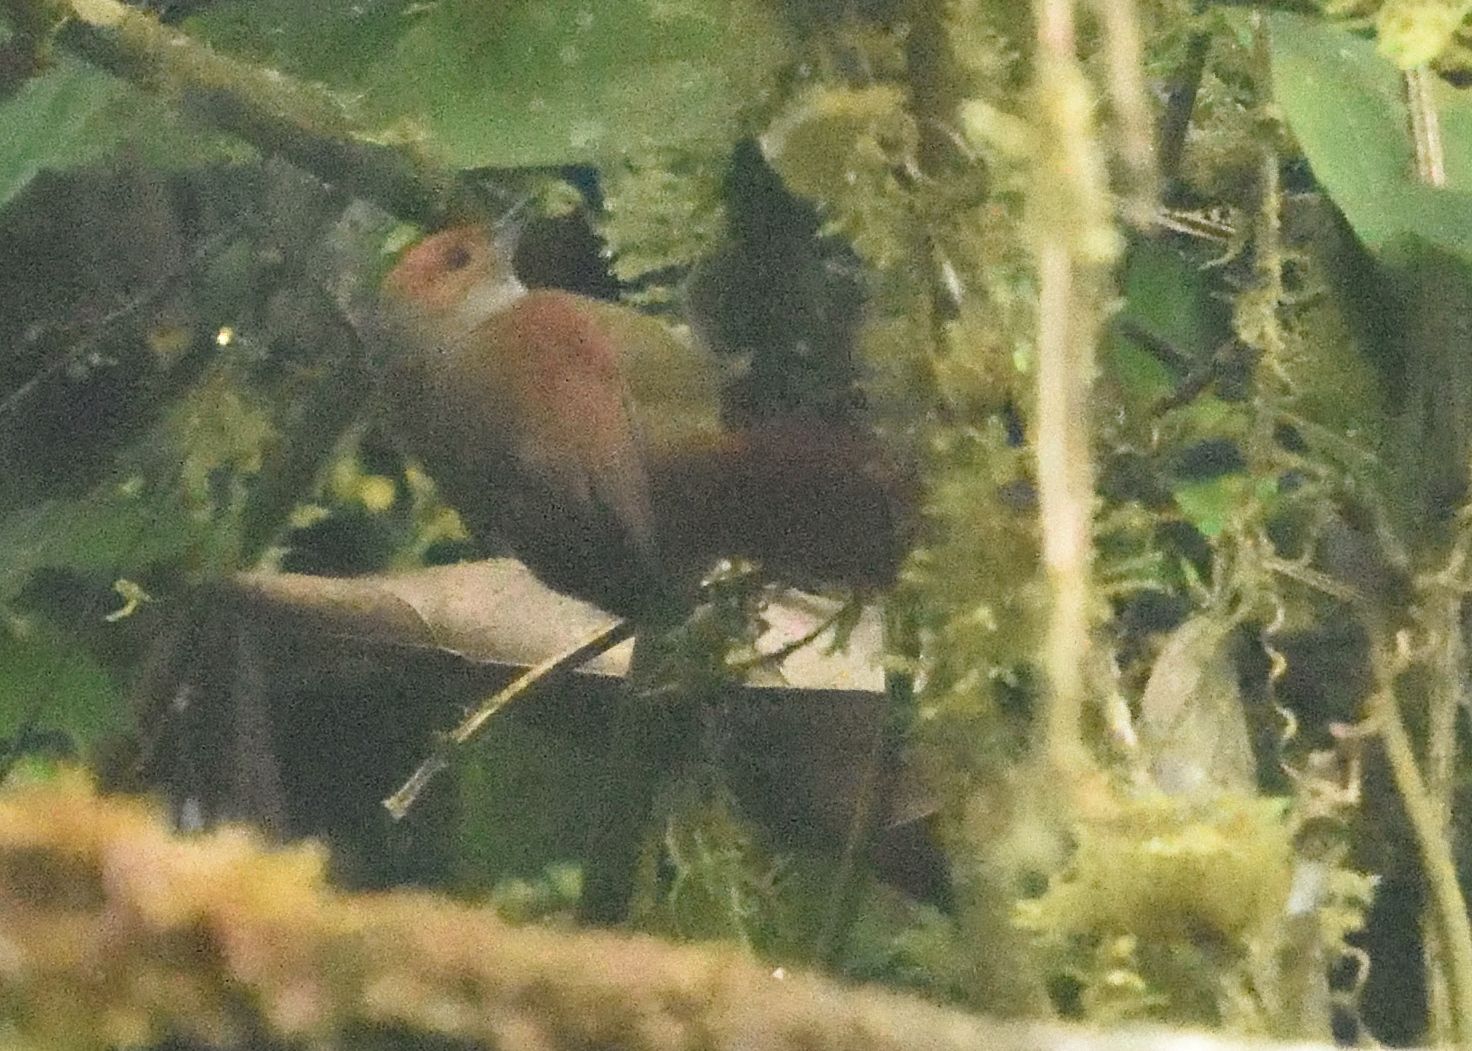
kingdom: Animalia
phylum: Chordata
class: Aves
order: Passeriformes
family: Furnariidae
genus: Cranioleuca
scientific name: Cranioleuca erythrops
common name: Red-faced spinetail
